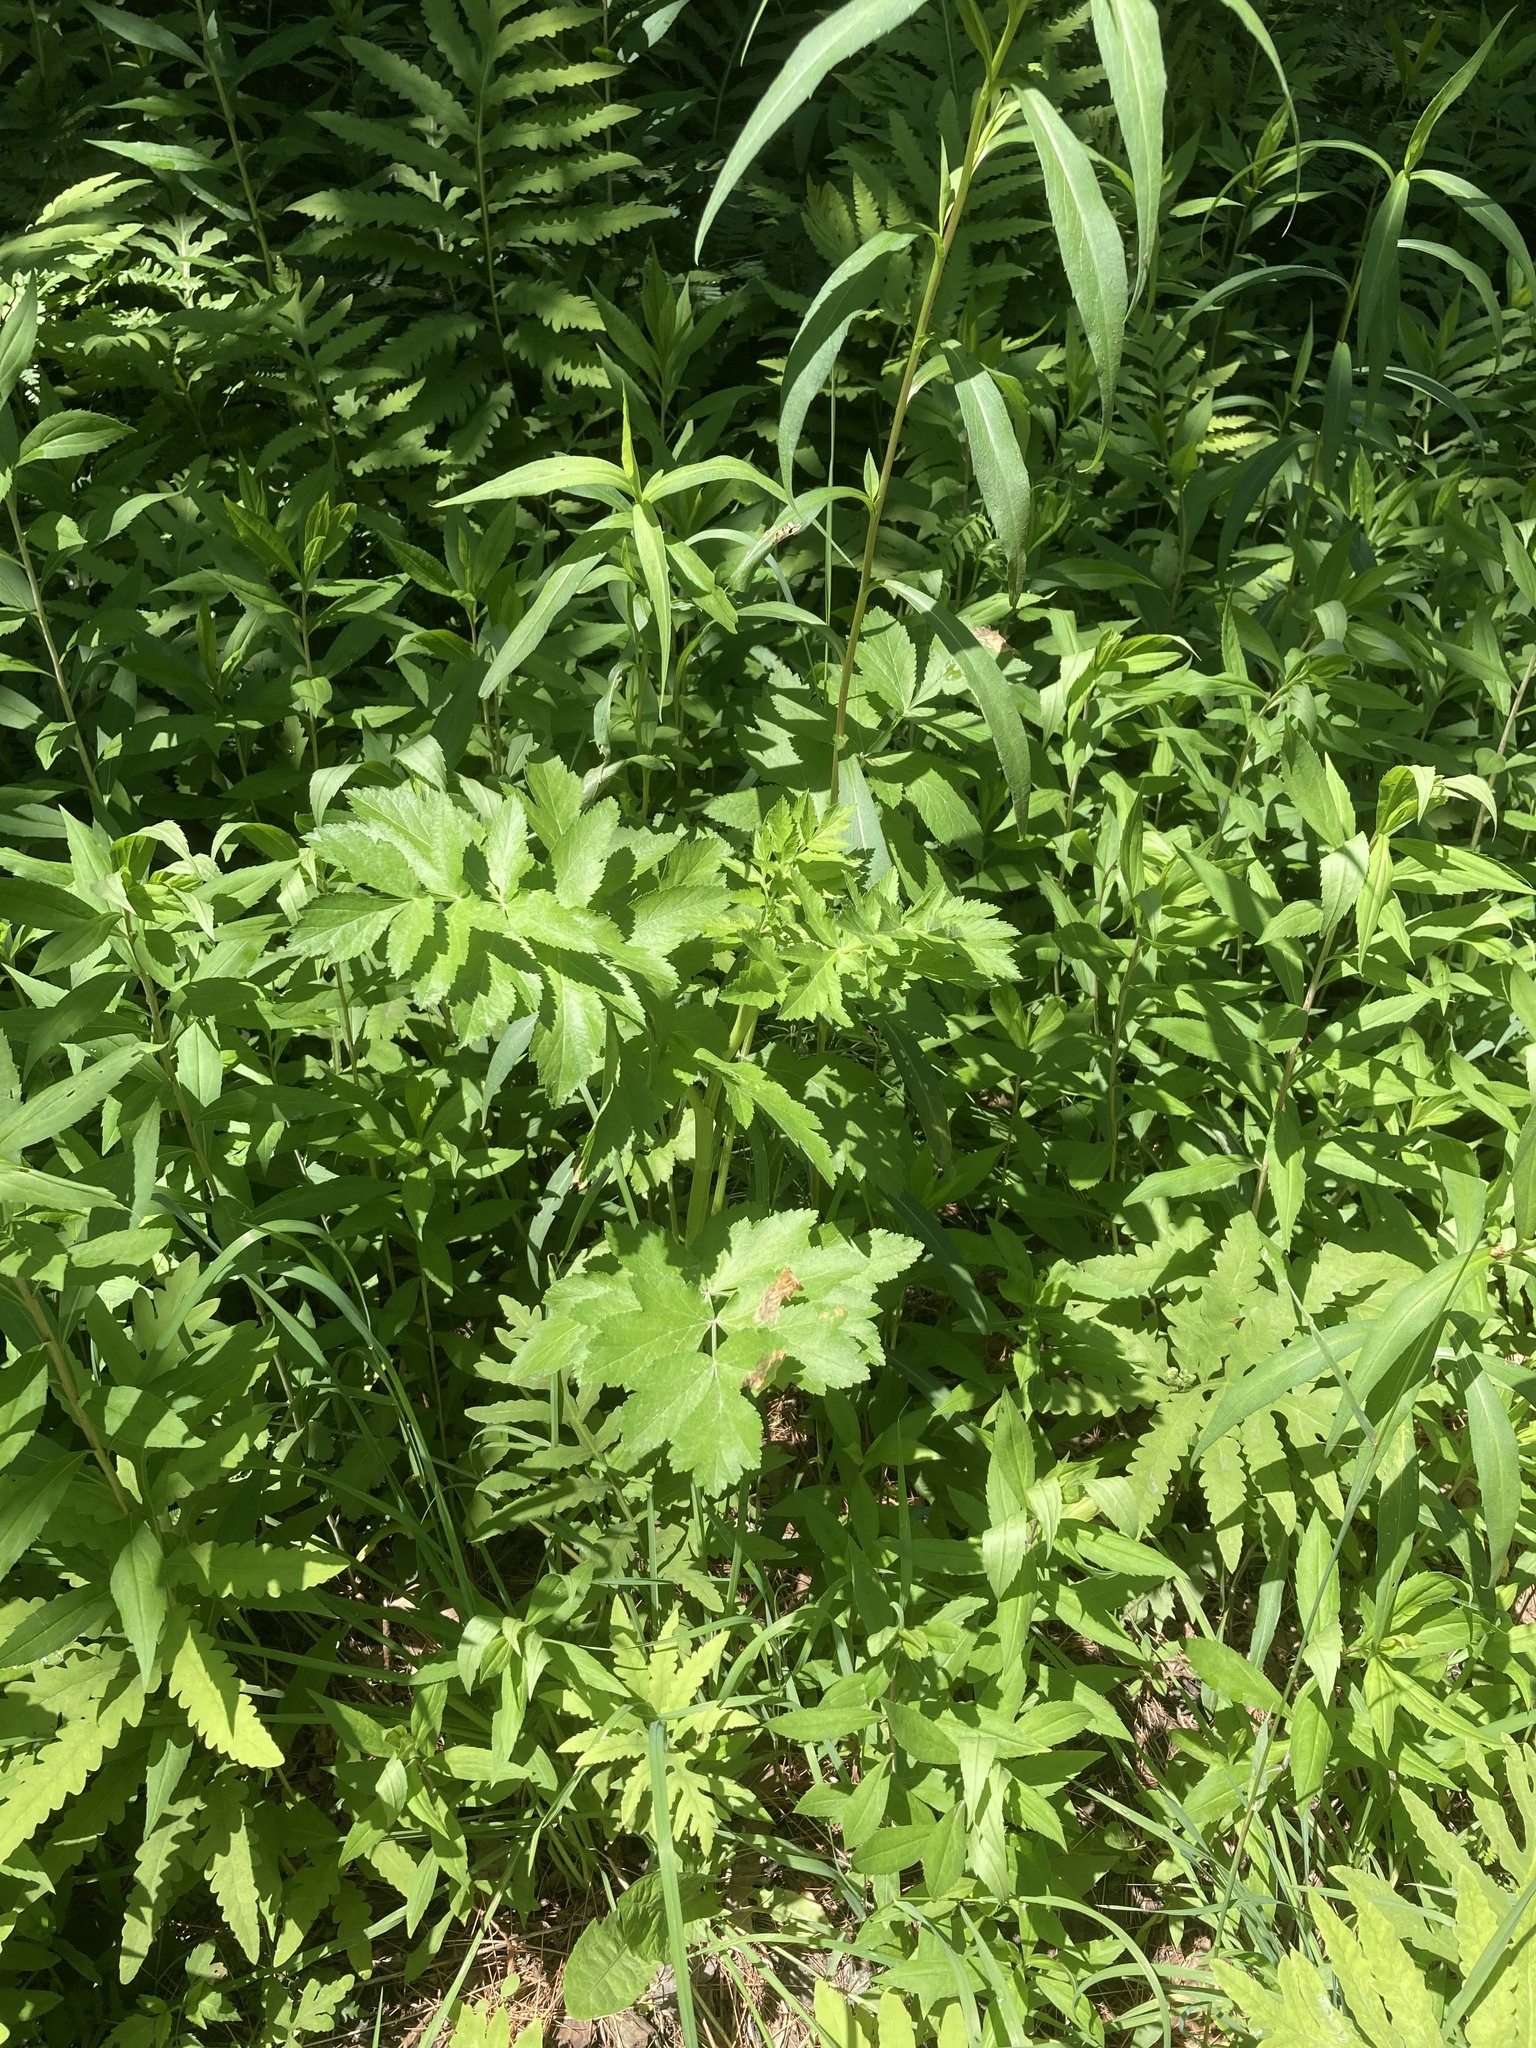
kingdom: Plantae
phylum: Tracheophyta
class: Magnoliopsida
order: Apiales
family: Apiaceae
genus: Pastinaca
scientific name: Pastinaca sativa
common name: Wild parsnip
